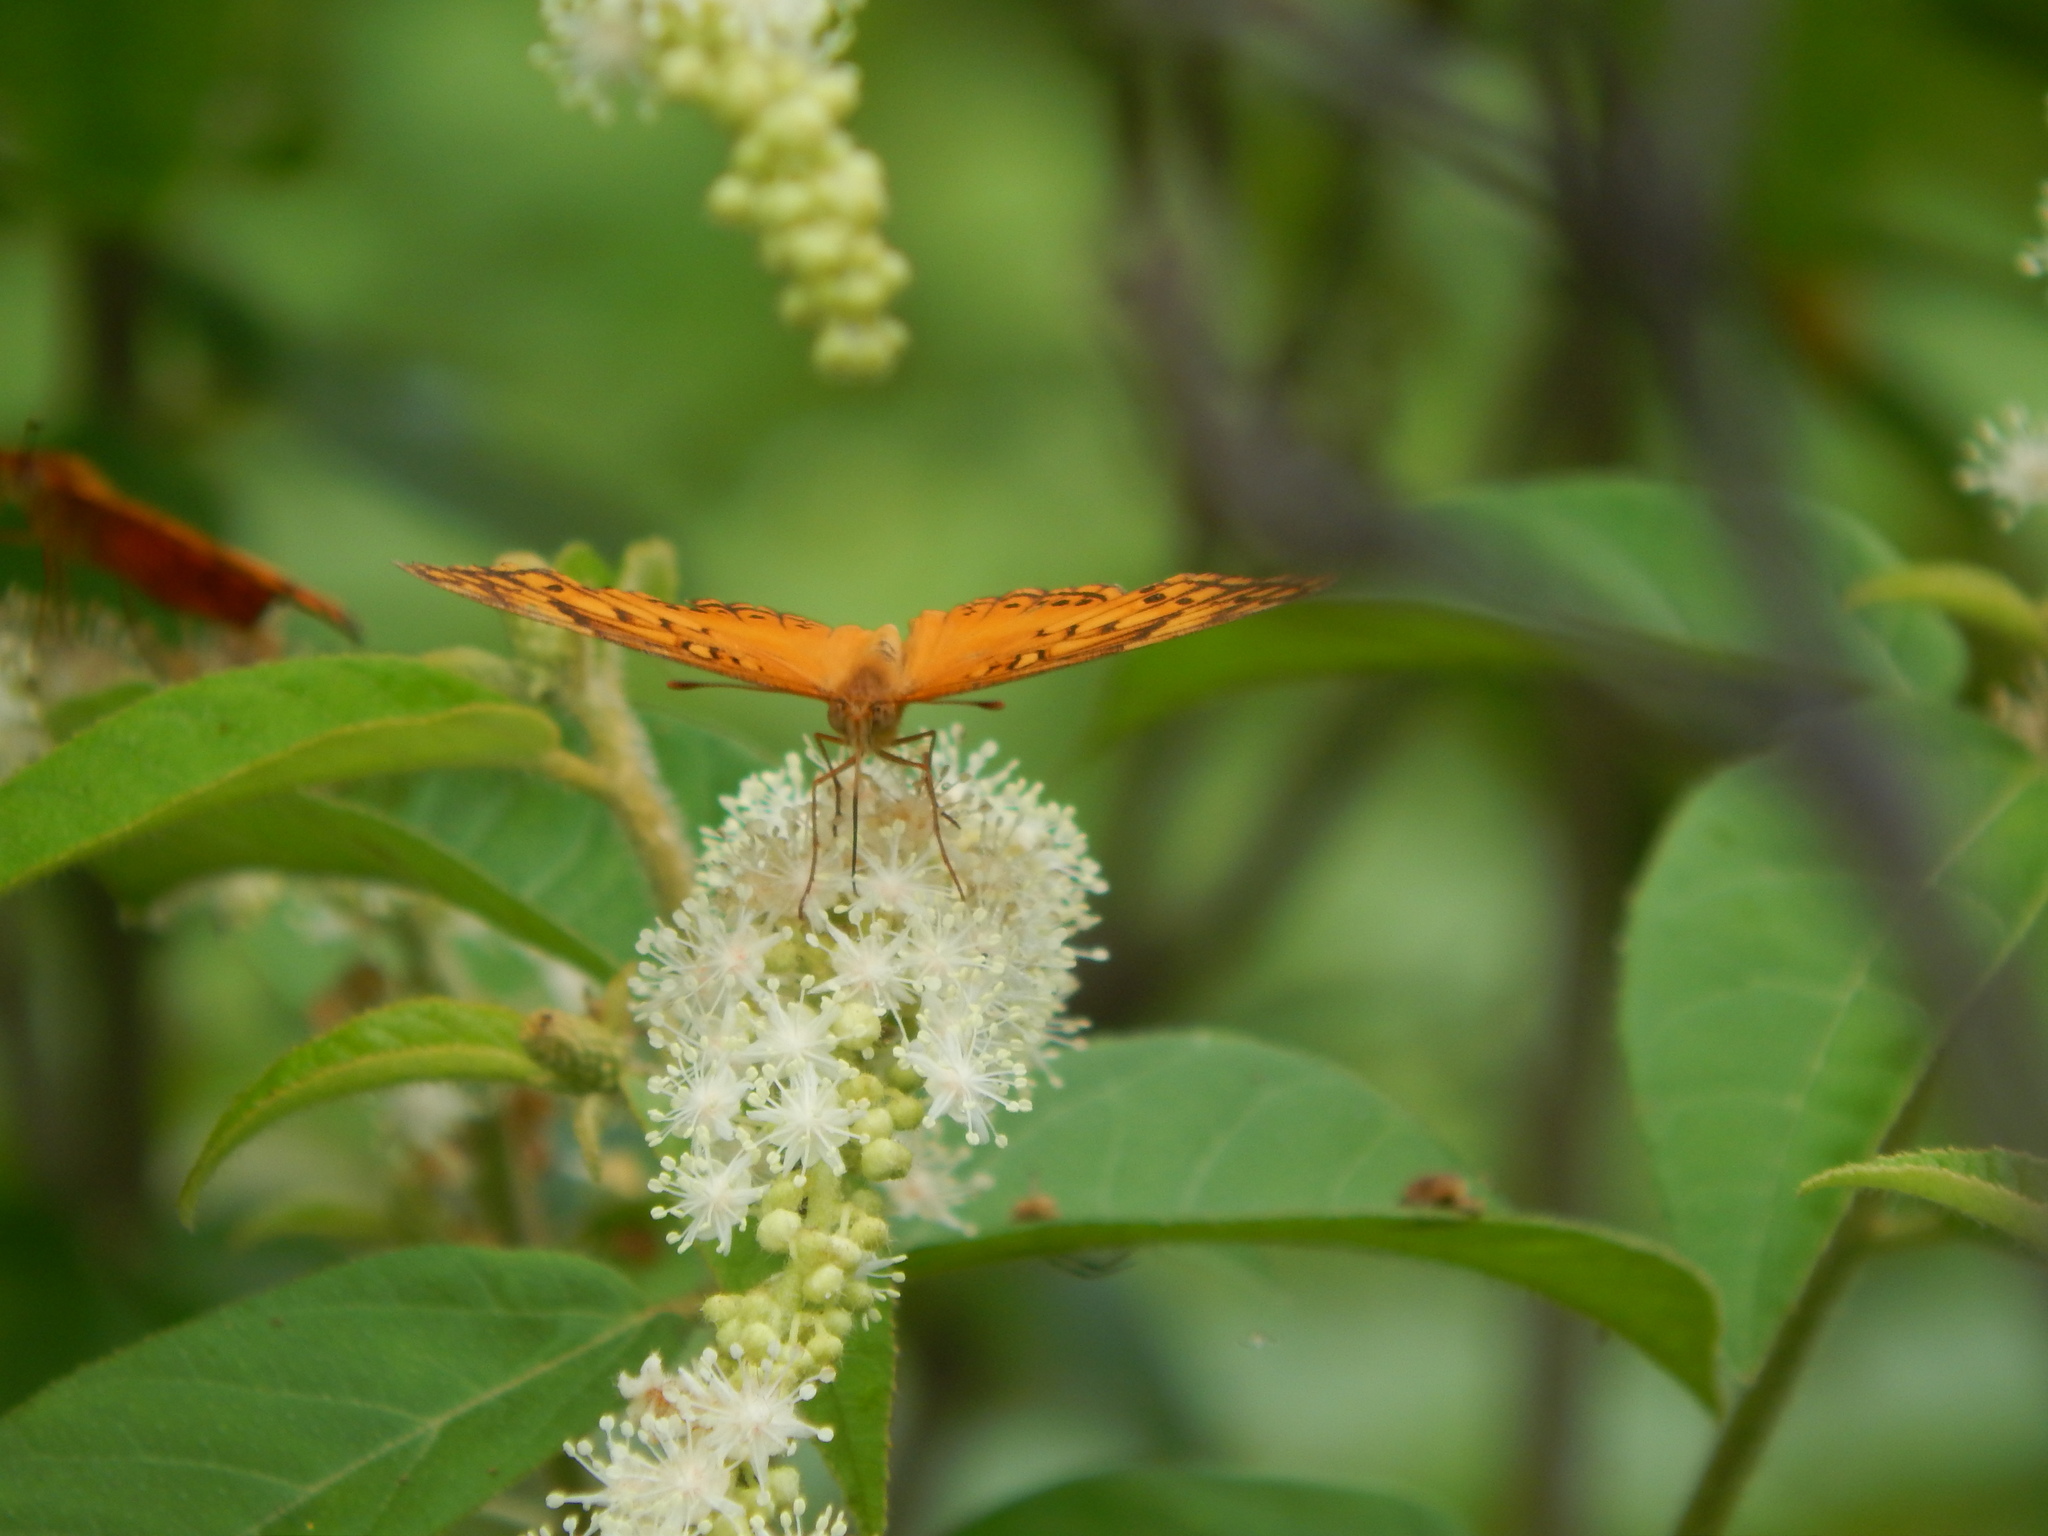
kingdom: Animalia
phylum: Arthropoda
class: Insecta
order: Lepidoptera
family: Nymphalidae
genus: Euptoieta
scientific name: Euptoieta hegesia
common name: Mexican fritillary
